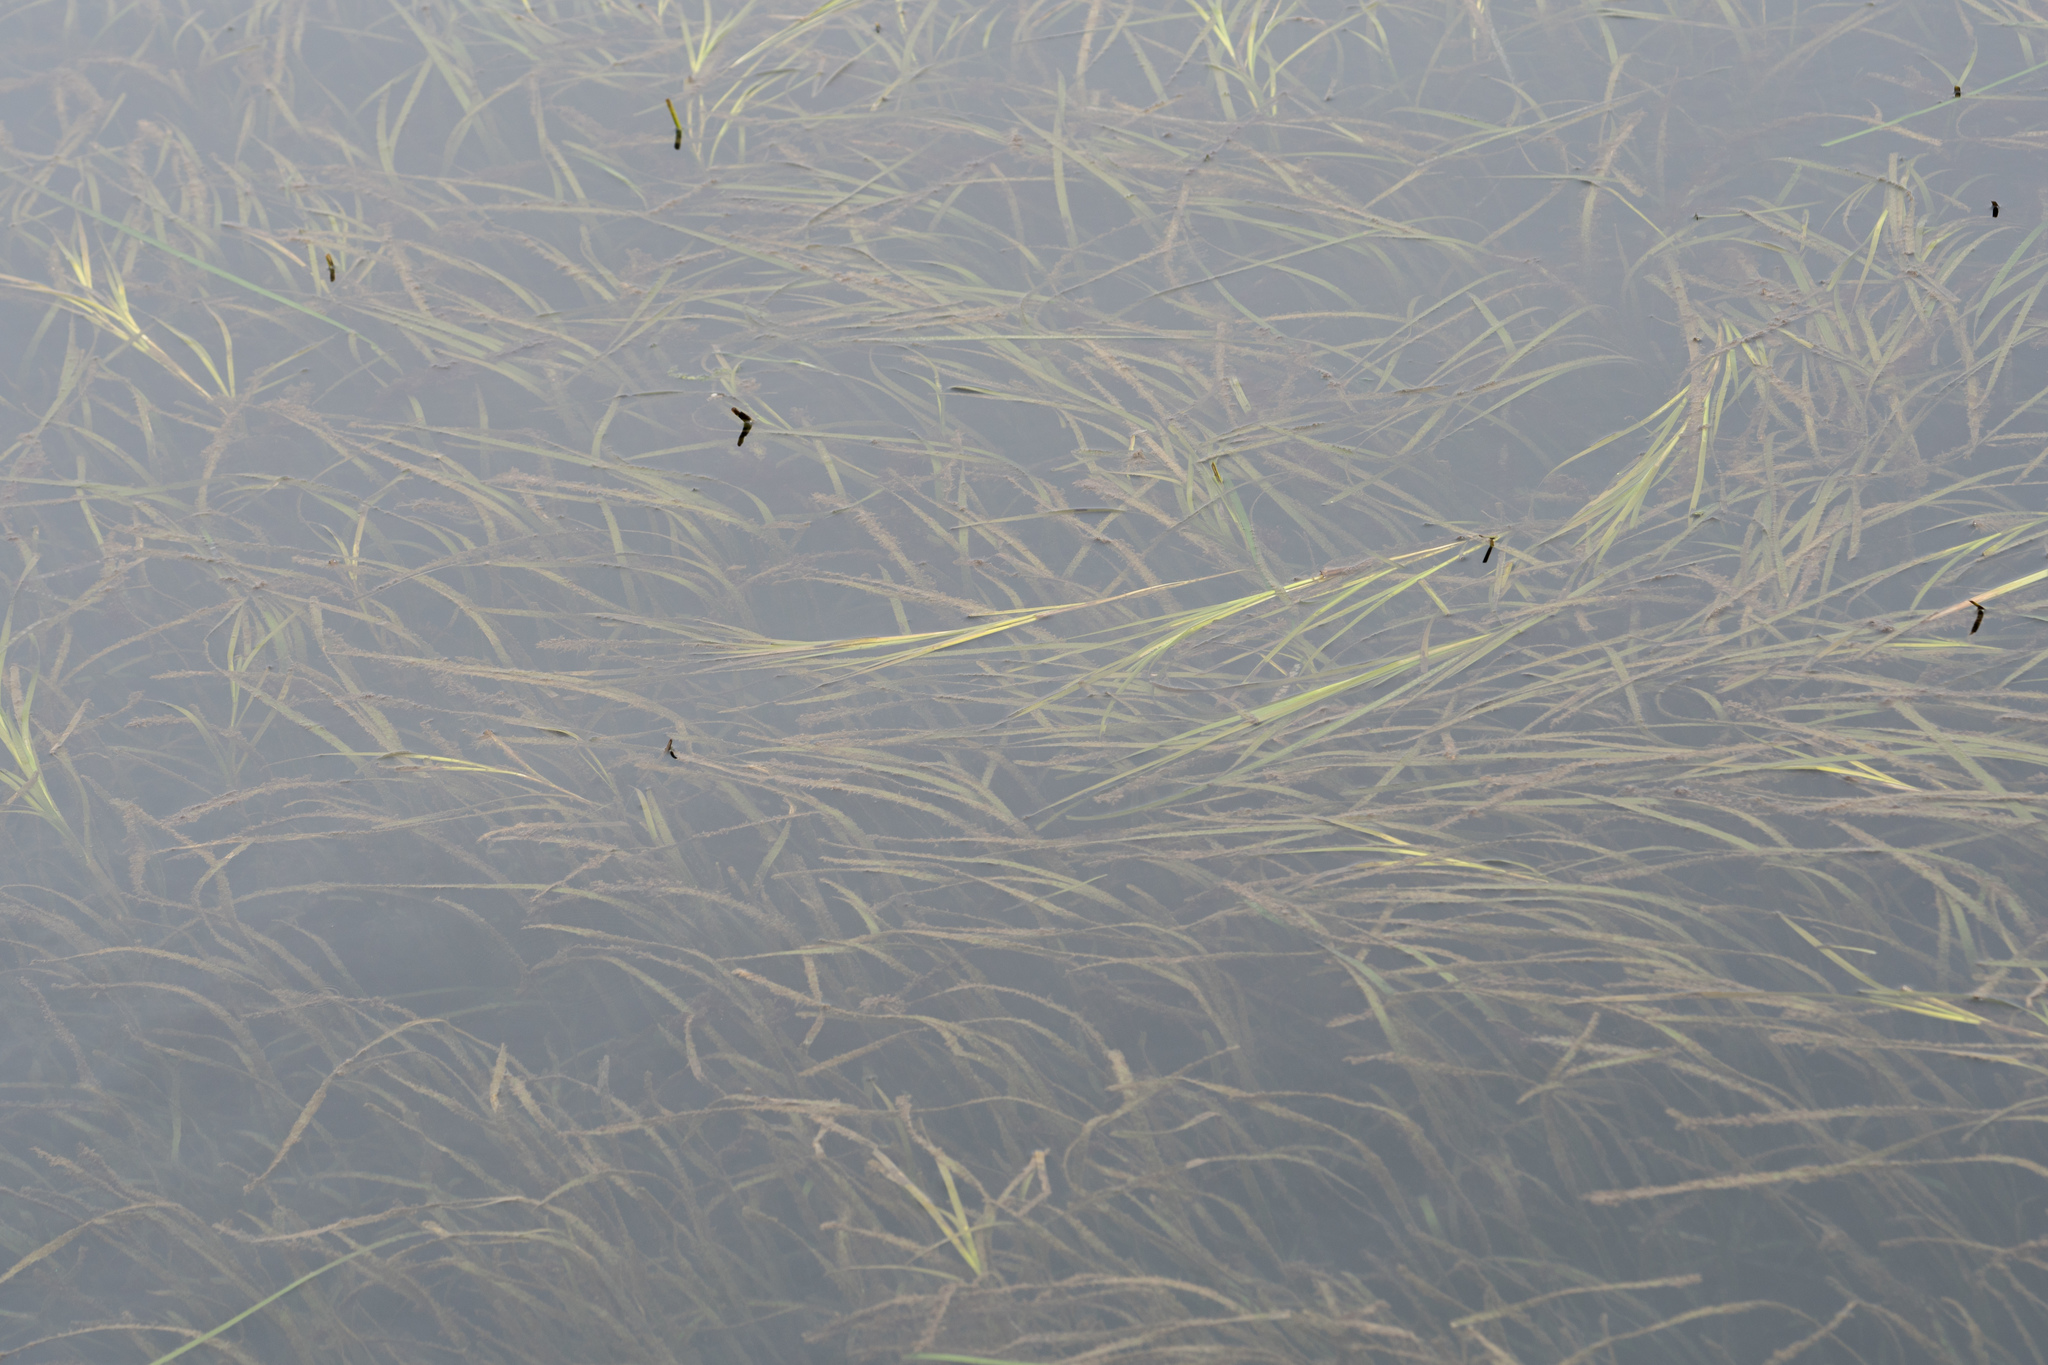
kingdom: Plantae
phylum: Tracheophyta
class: Liliopsida
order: Alismatales
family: Zosteraceae
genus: Zostera
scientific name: Zostera marina
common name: Eelgrass
